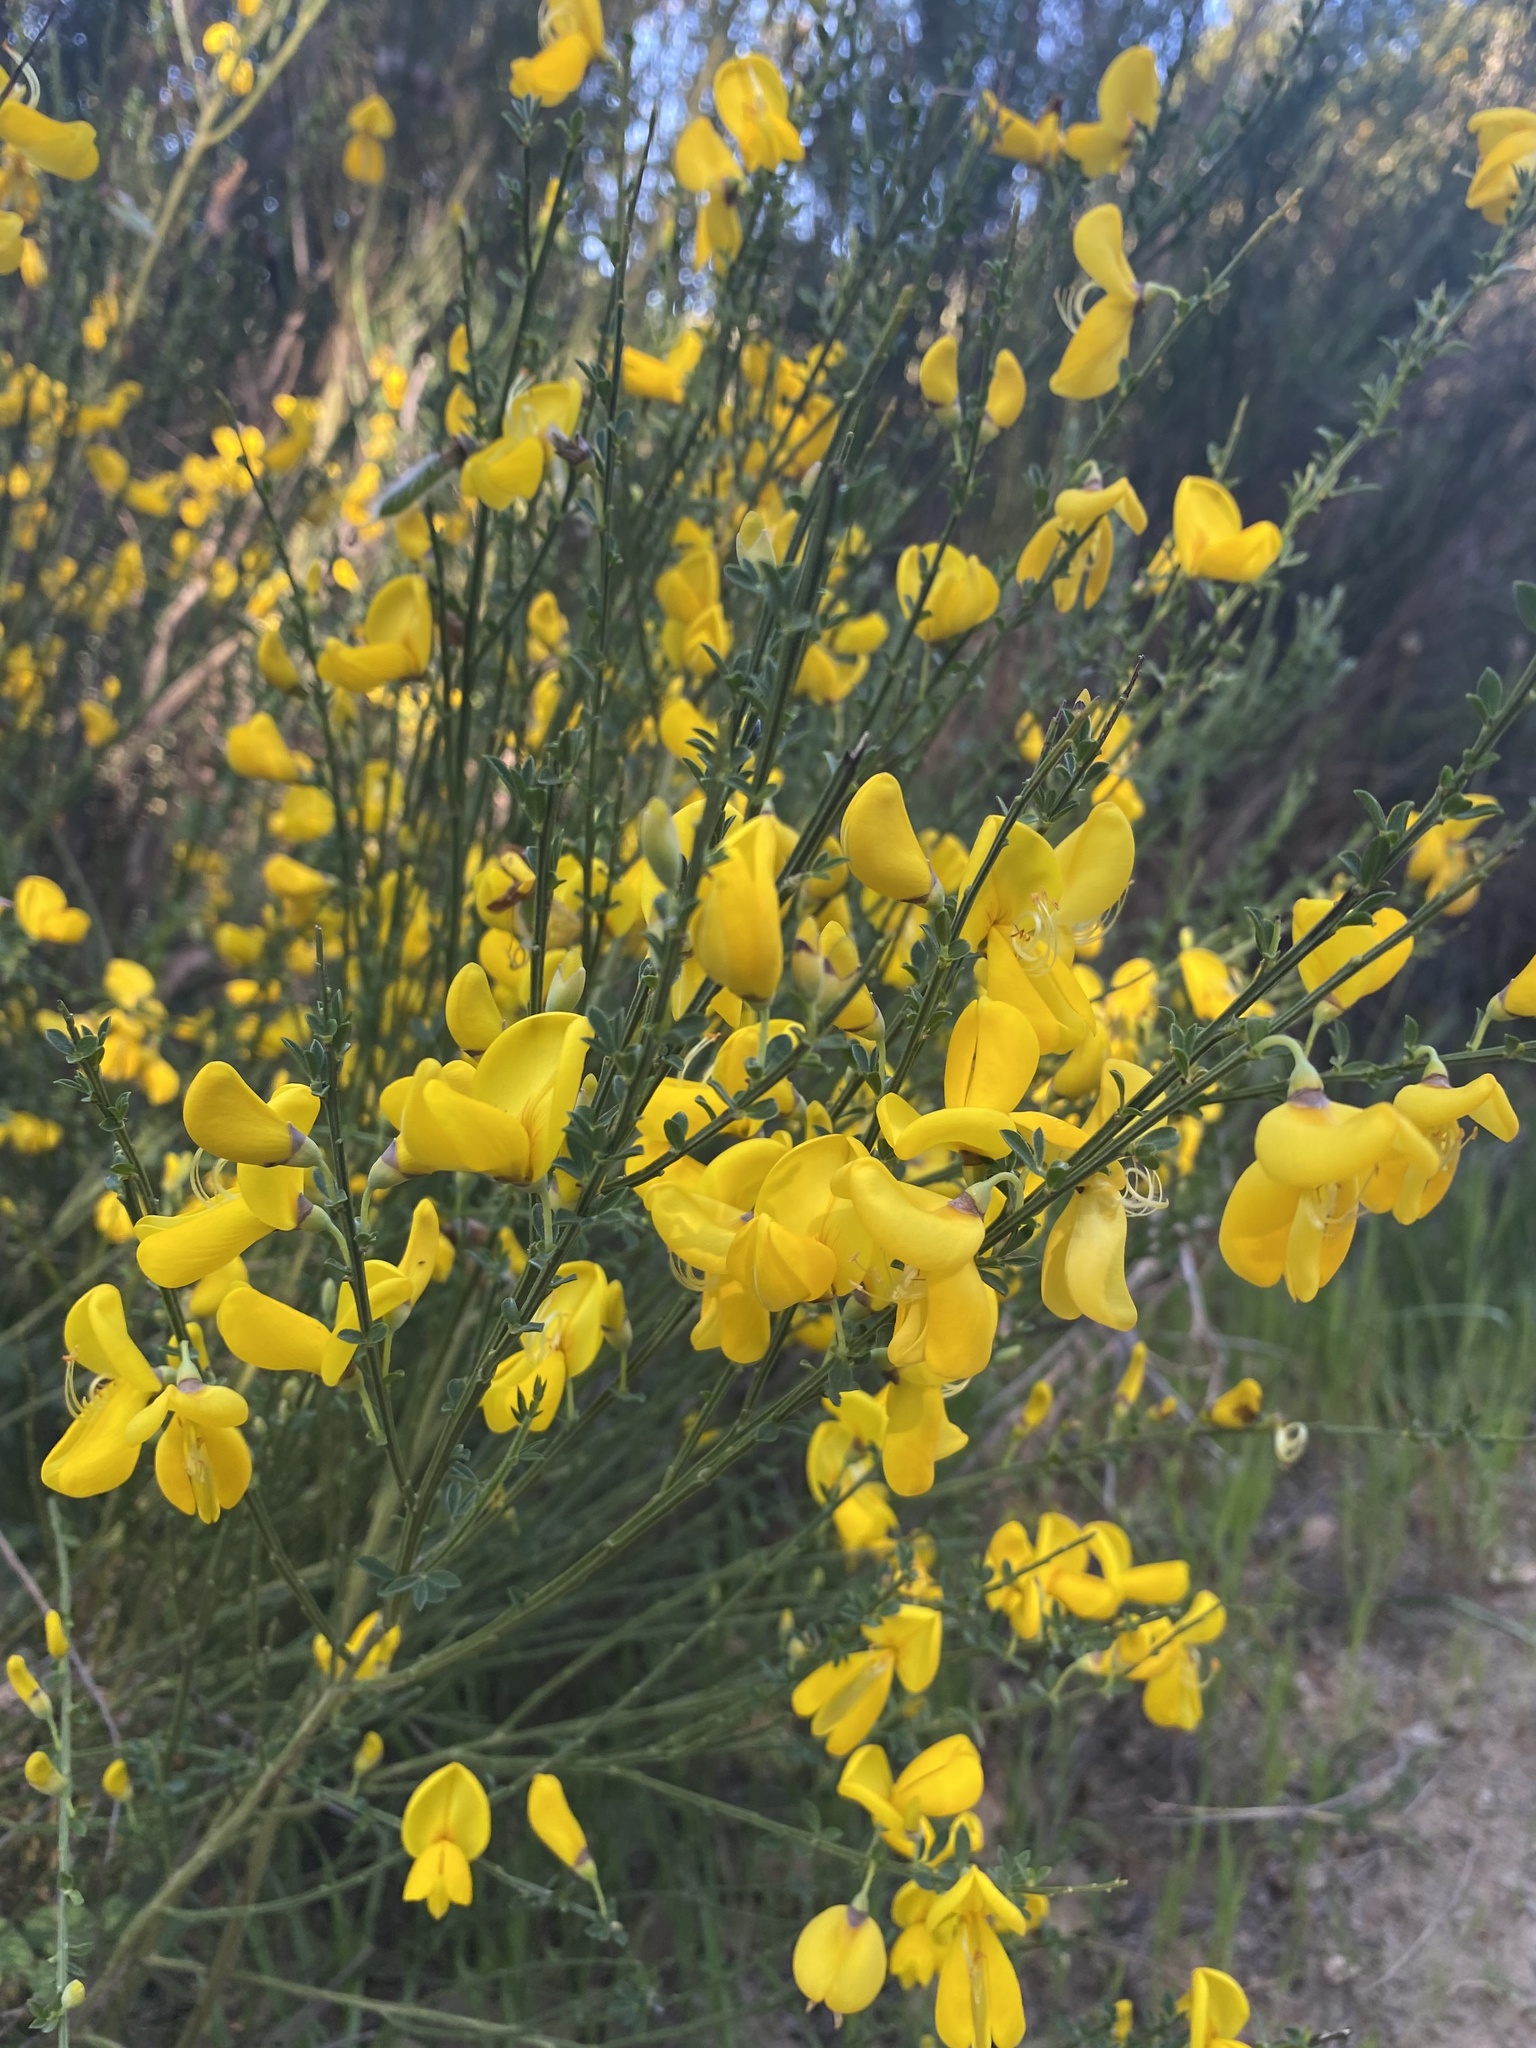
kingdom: Plantae
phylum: Tracheophyta
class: Magnoliopsida
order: Fabales
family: Fabaceae
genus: Cytisus
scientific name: Cytisus scoparius
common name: Scotch broom
